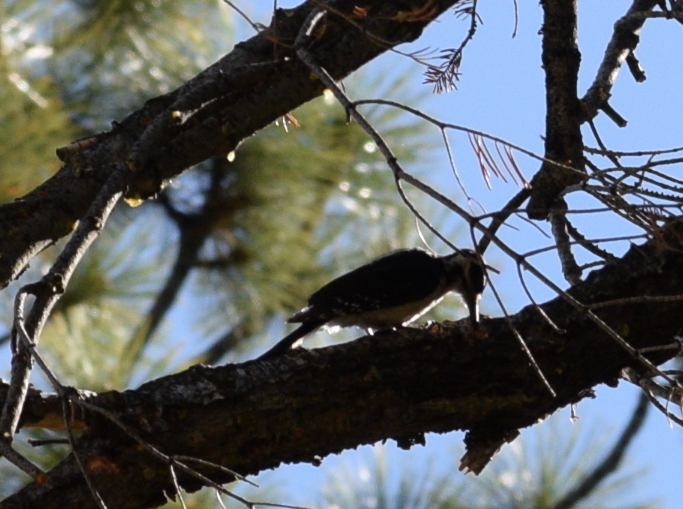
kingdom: Animalia
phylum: Chordata
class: Aves
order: Piciformes
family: Picidae
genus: Leuconotopicus
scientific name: Leuconotopicus villosus
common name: Hairy woodpecker
